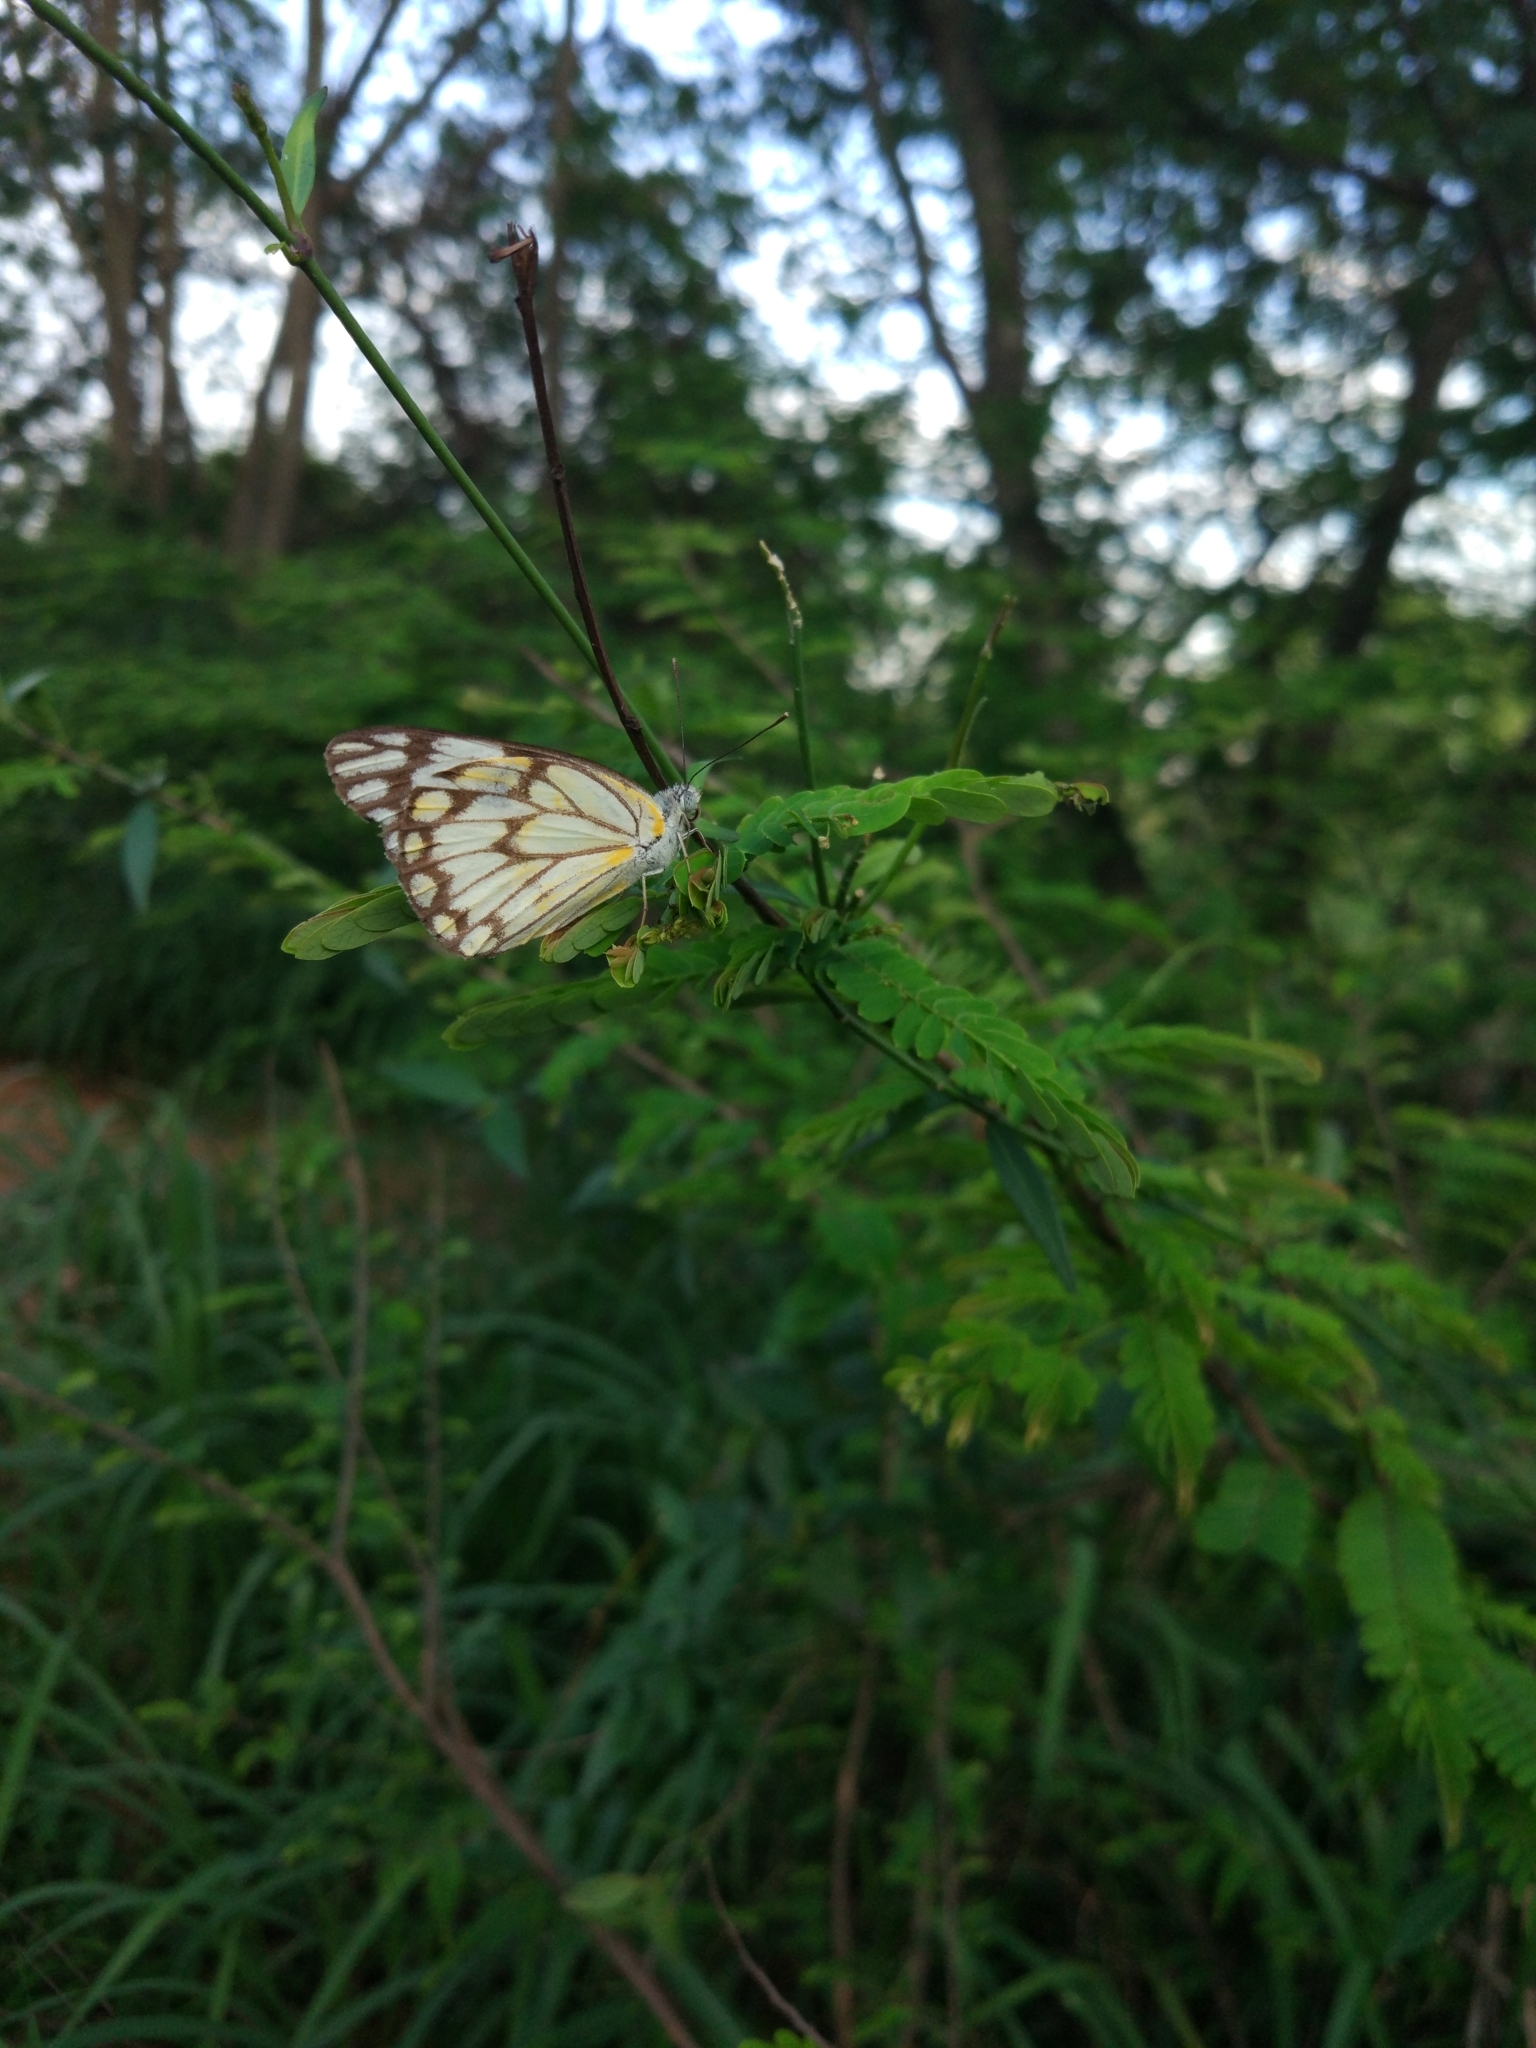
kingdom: Animalia
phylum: Arthropoda
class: Insecta
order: Lepidoptera
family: Pieridae
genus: Belenois
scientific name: Belenois aurota
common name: Brown-veined white
